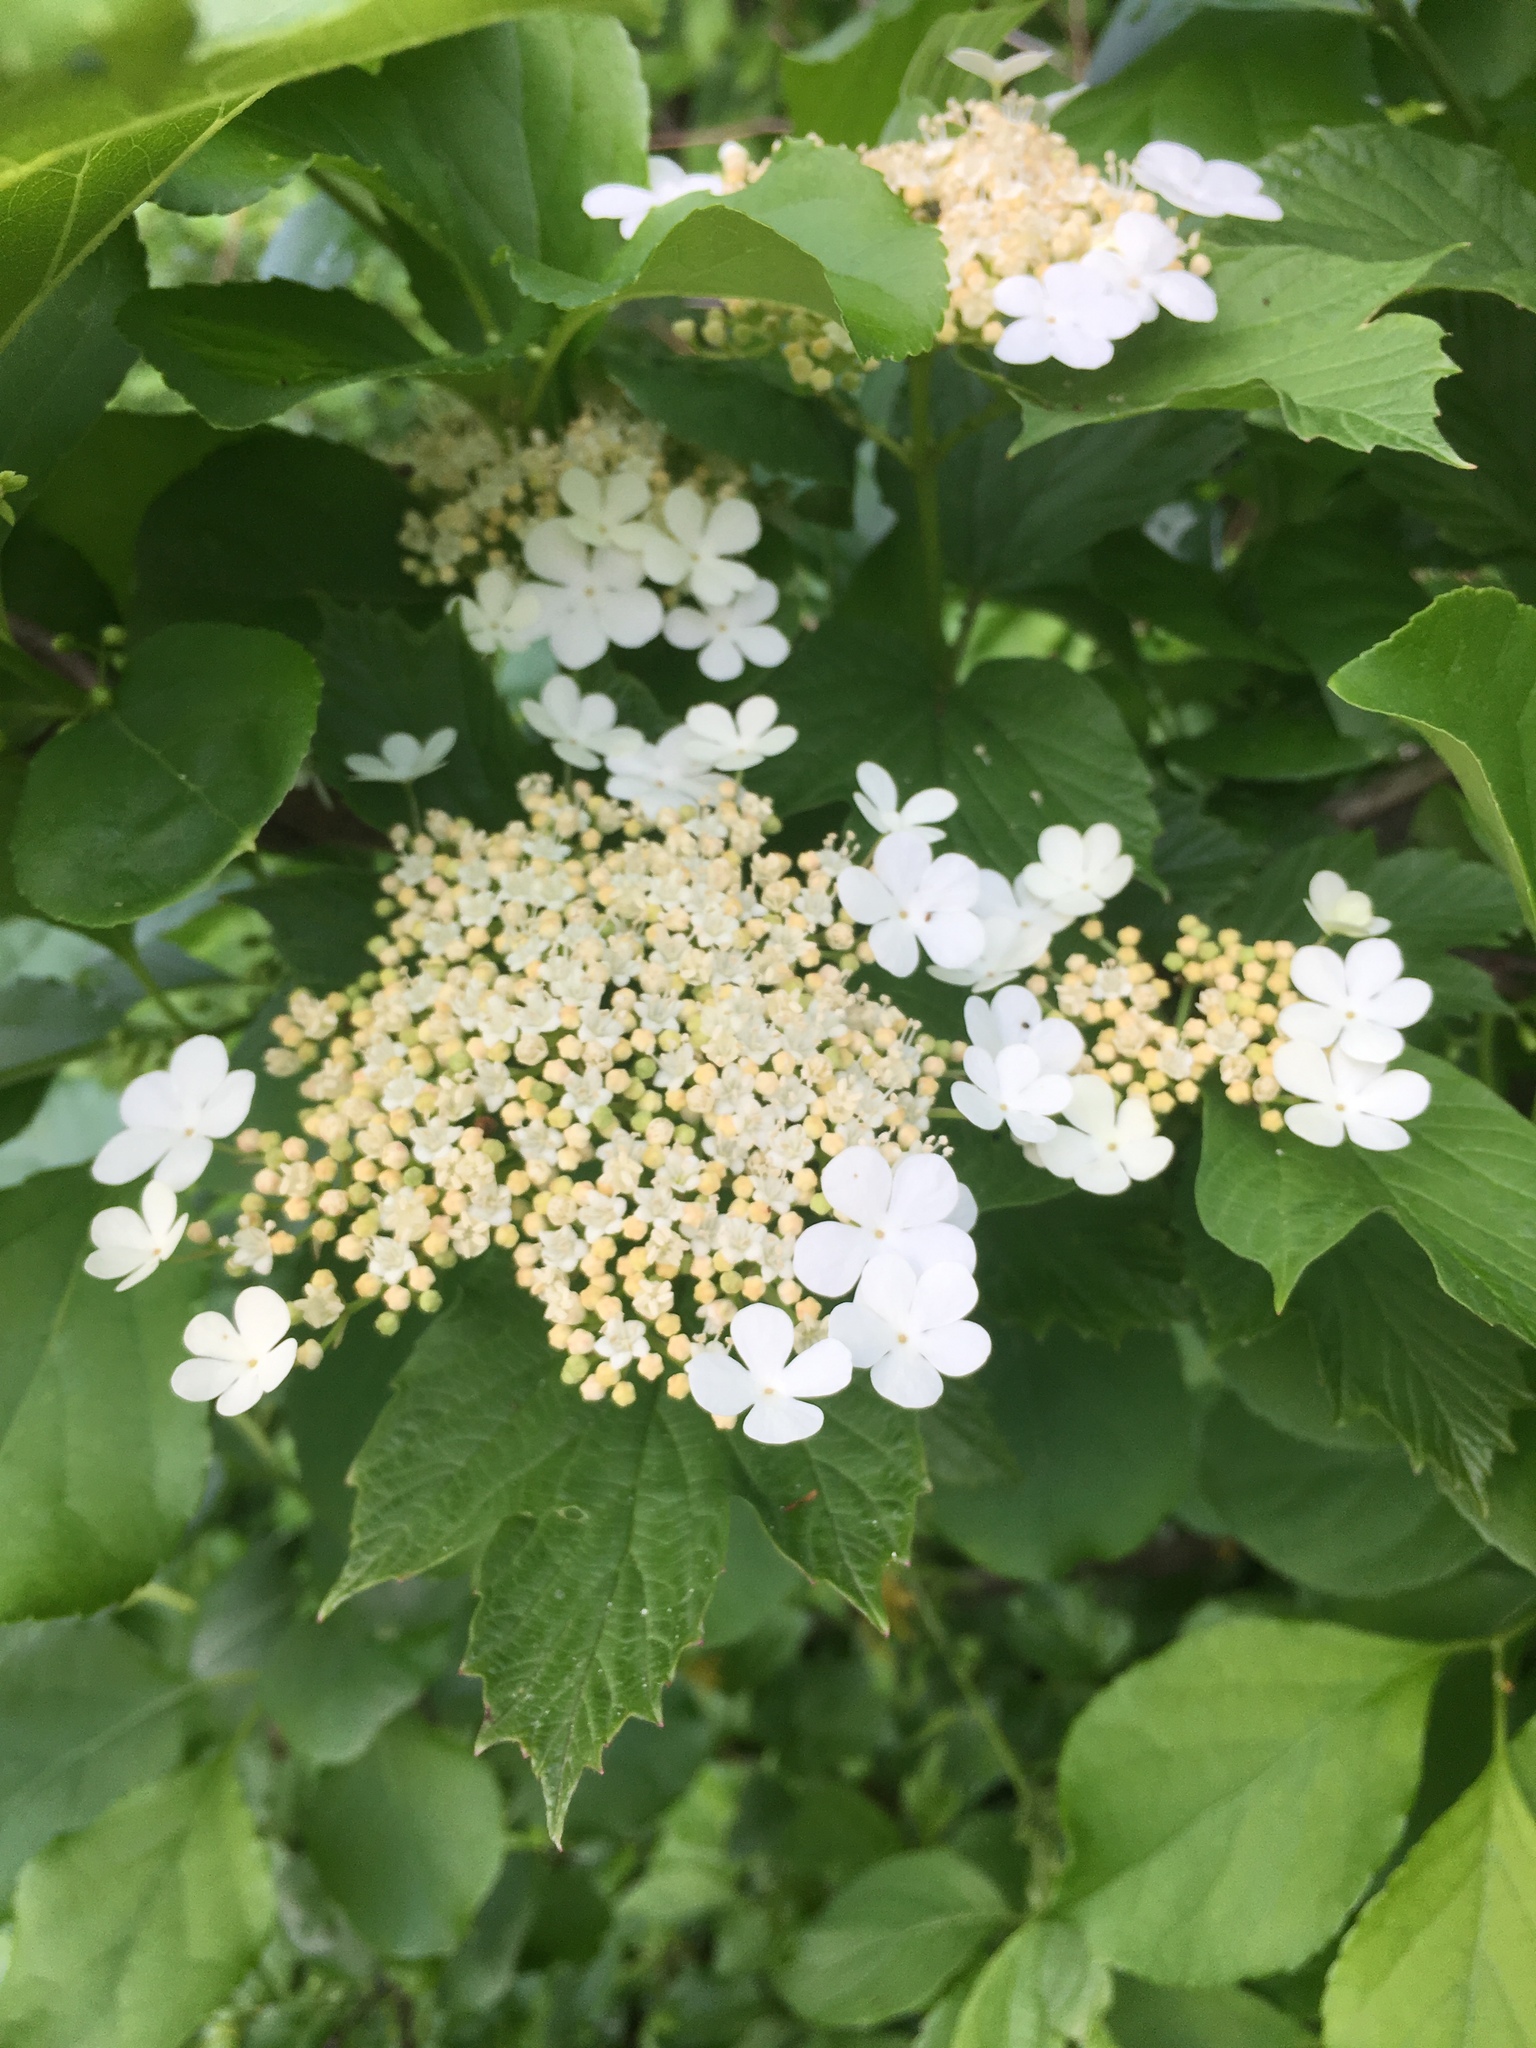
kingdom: Plantae
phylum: Tracheophyta
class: Magnoliopsida
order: Dipsacales
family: Viburnaceae
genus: Viburnum
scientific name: Viburnum opulus
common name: Guelder-rose
